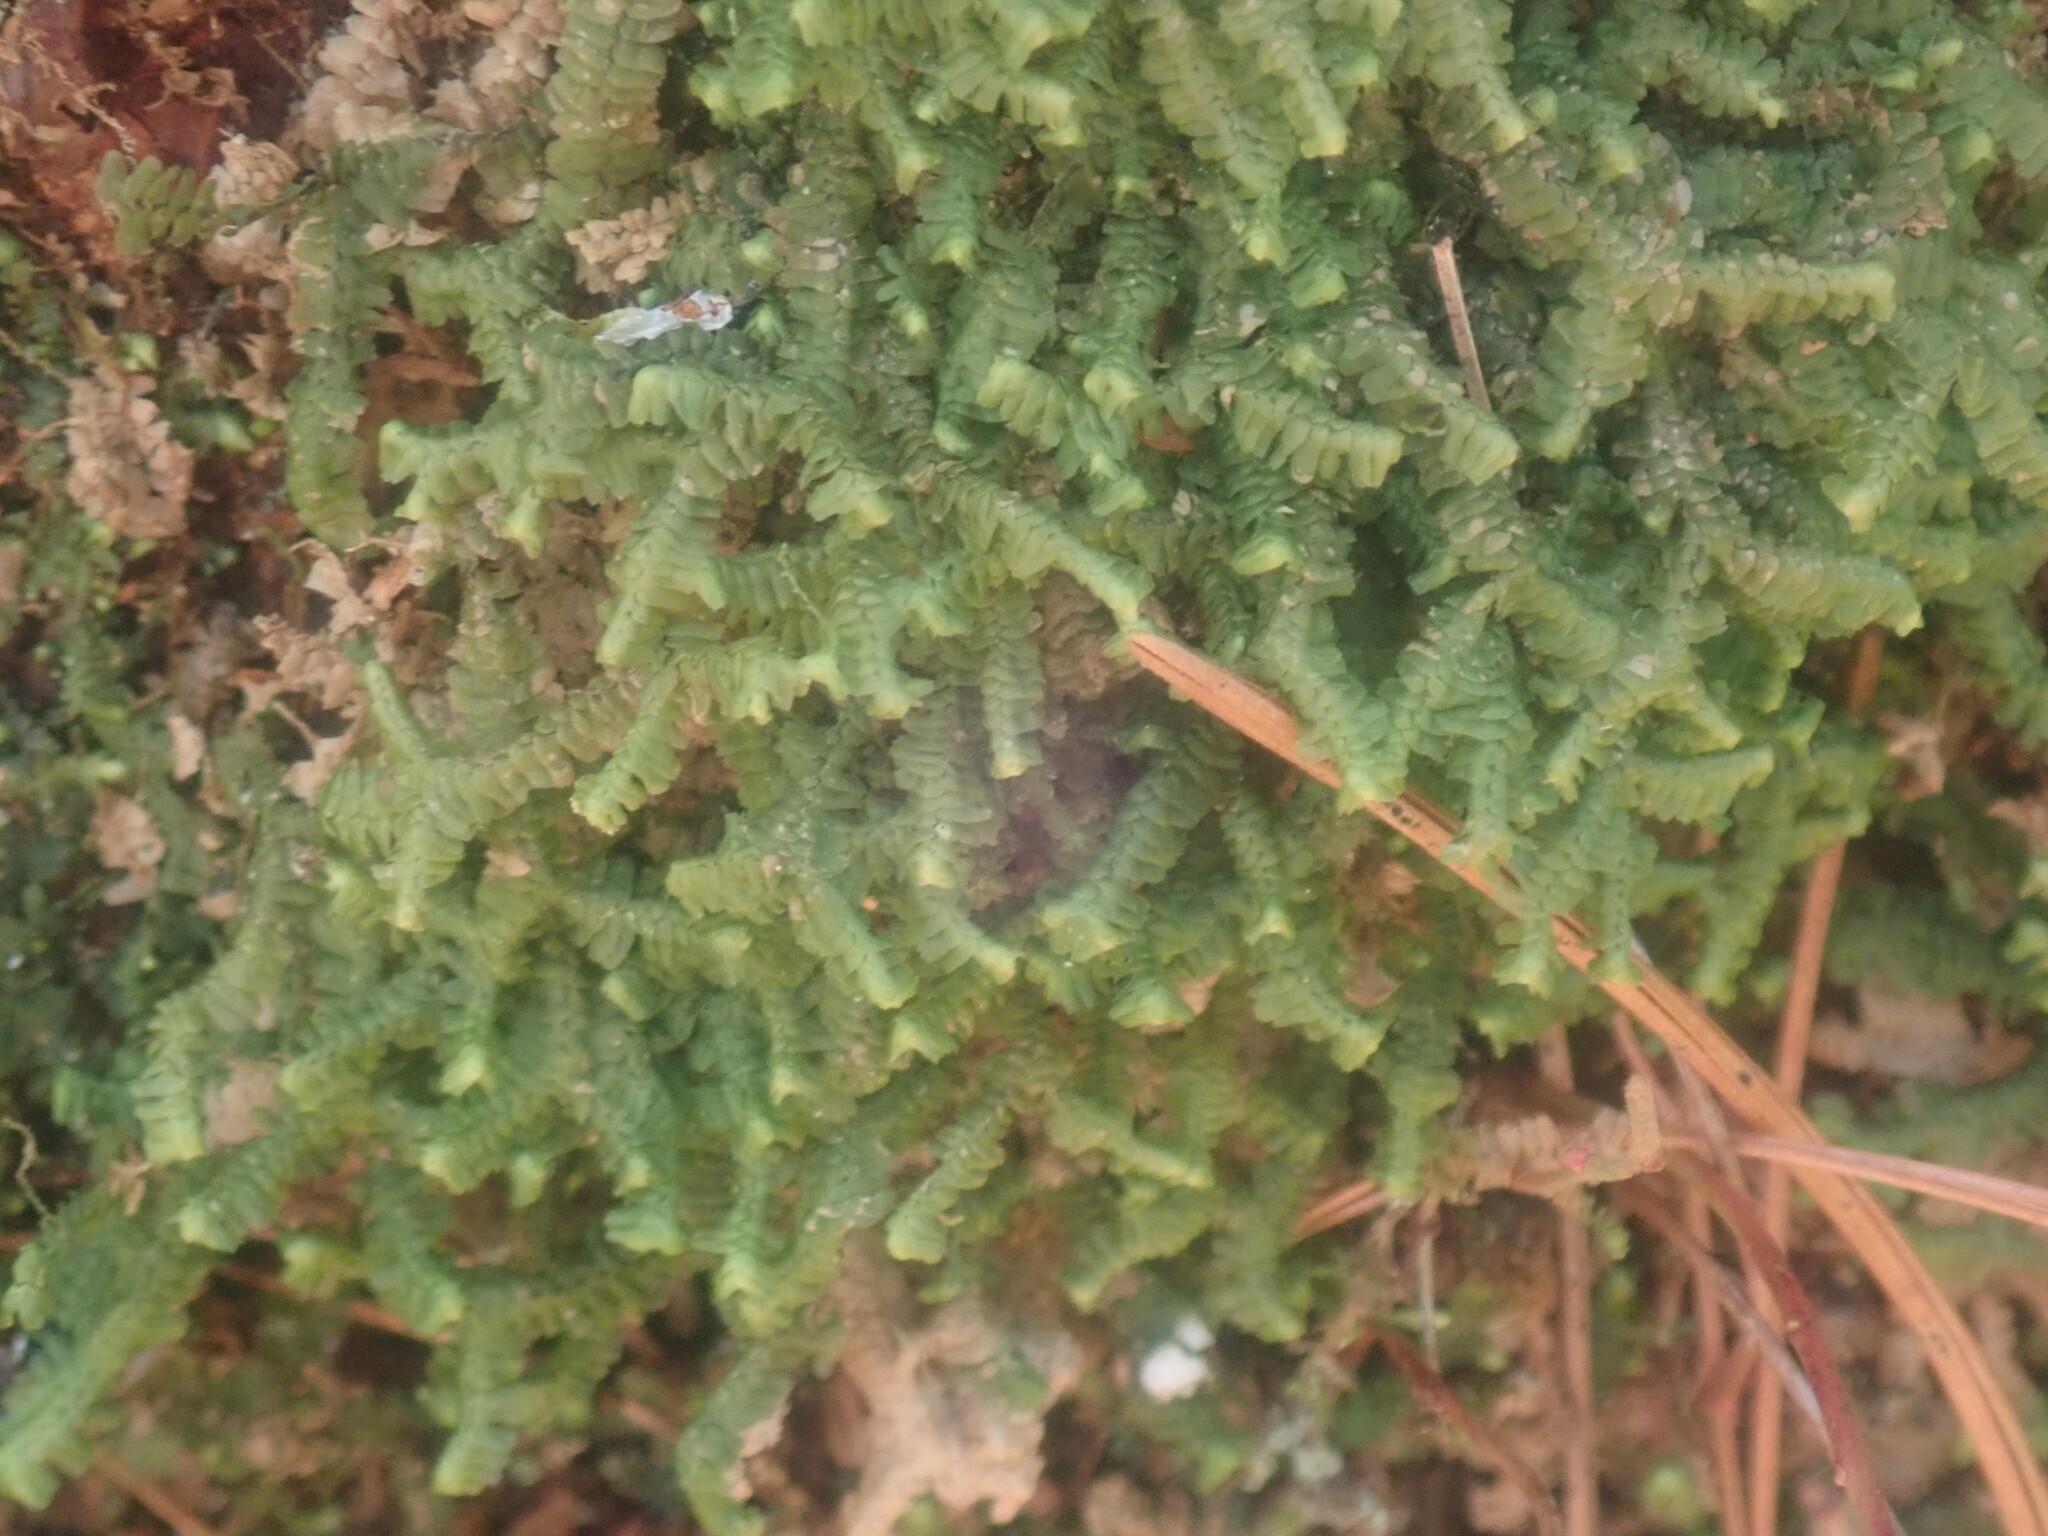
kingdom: Plantae
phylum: Marchantiophyta
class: Jungermanniopsida
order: Jungermanniales
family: Lepidoziaceae
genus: Bazzania
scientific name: Bazzania trilobata
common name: Three-lobed whipwort
